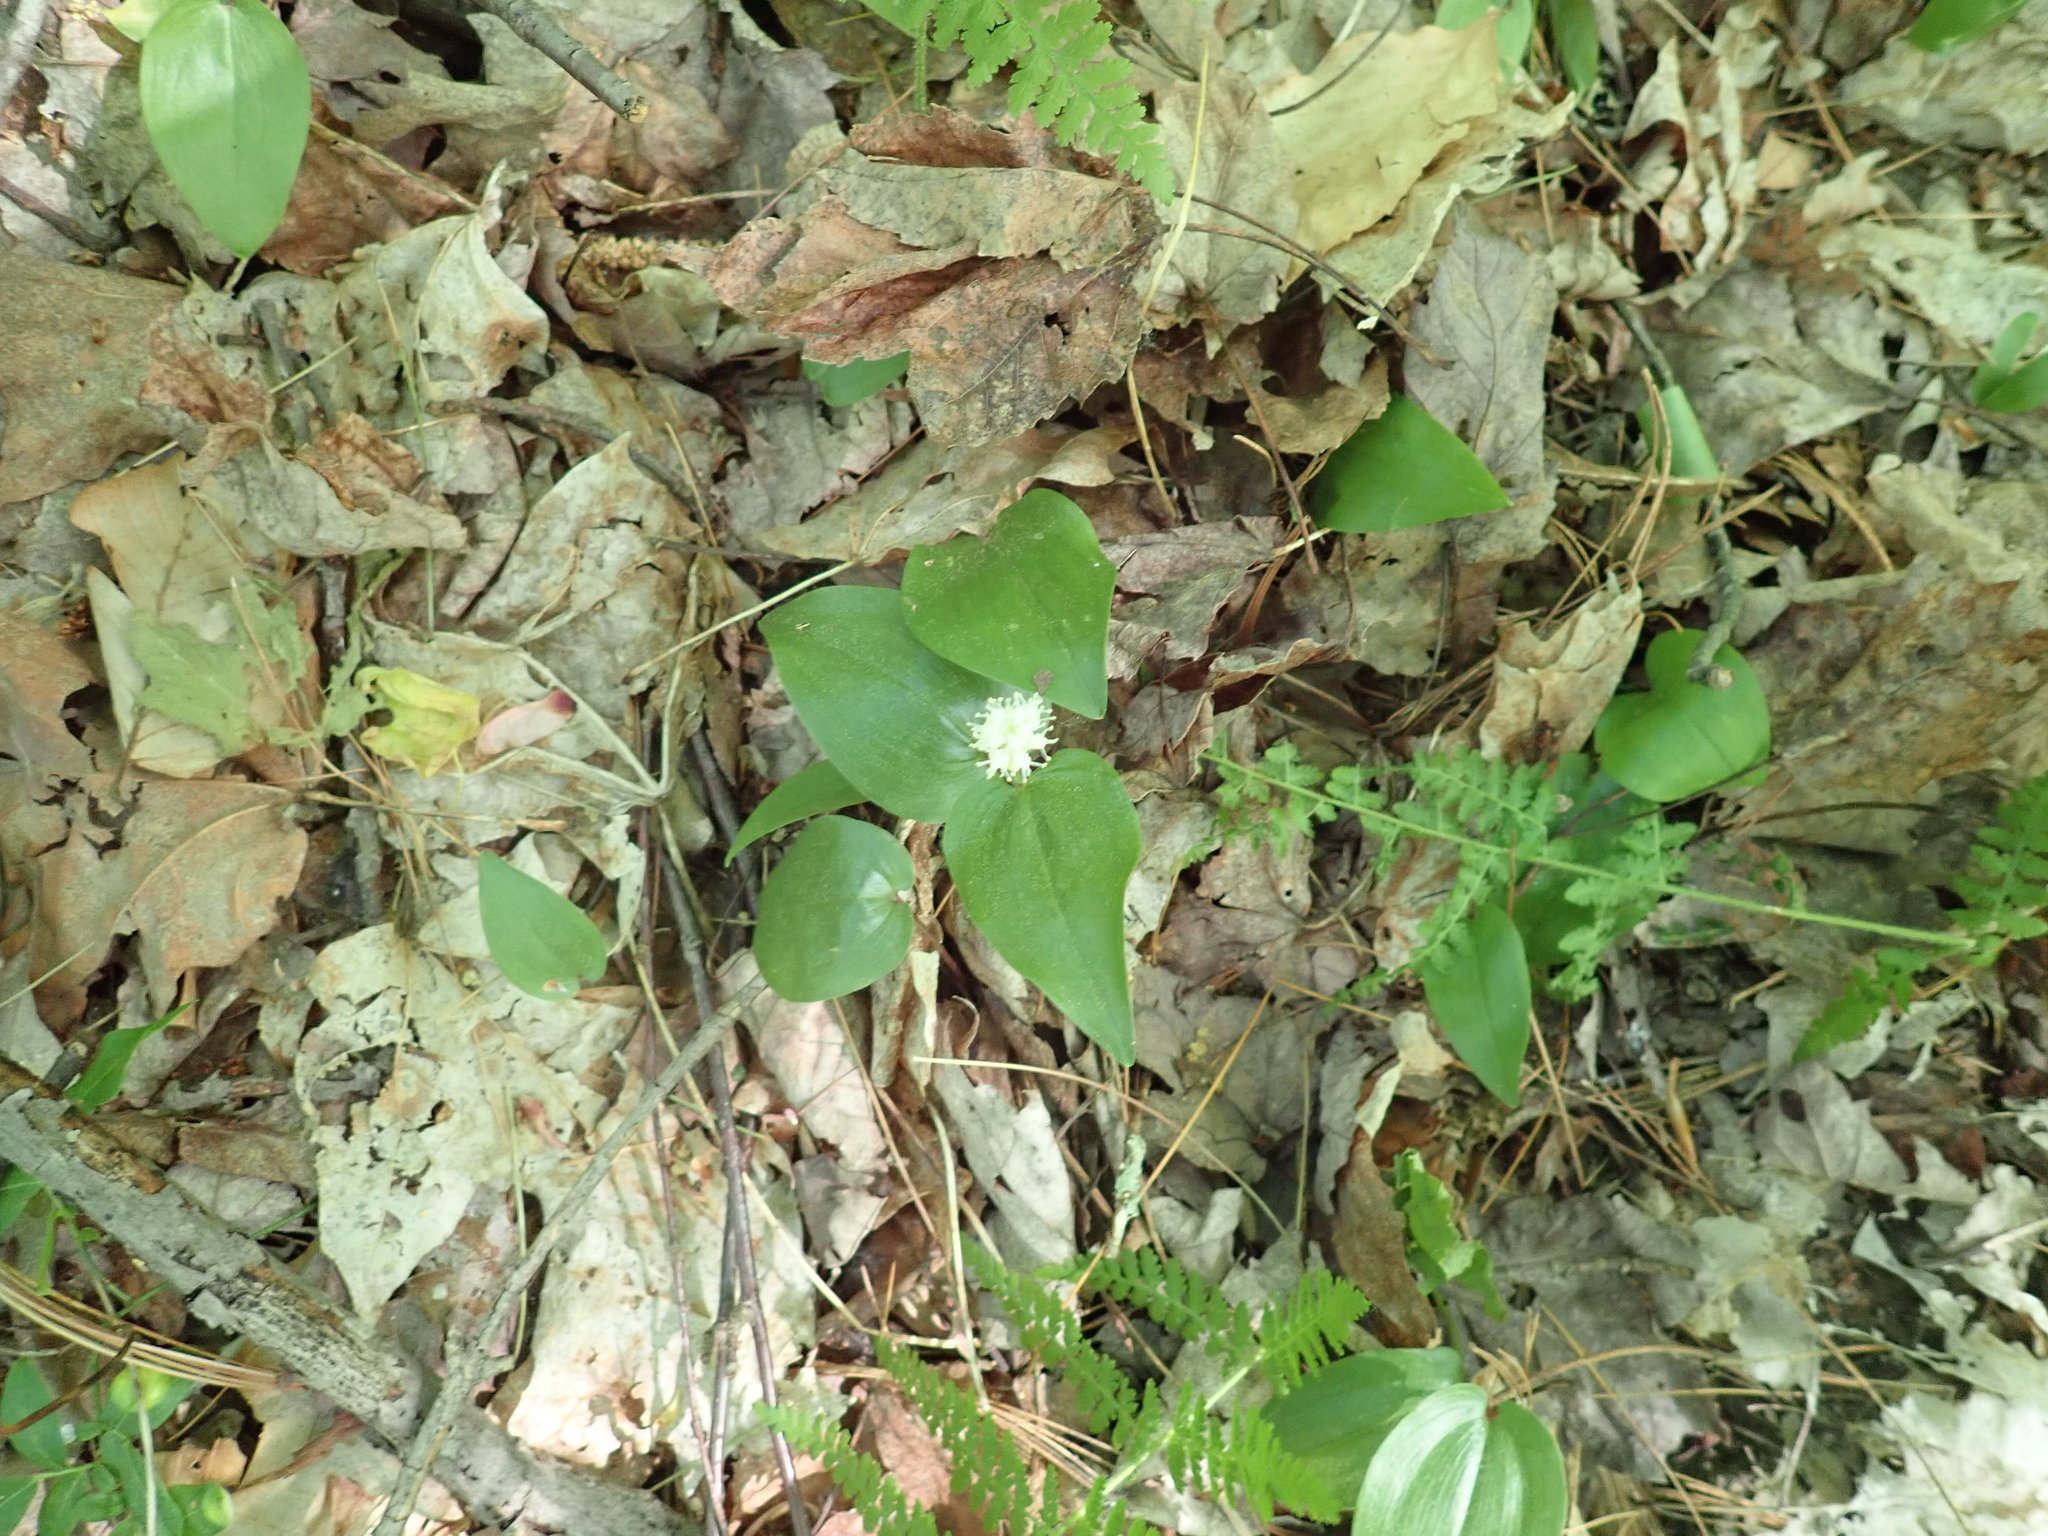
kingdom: Plantae
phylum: Tracheophyta
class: Liliopsida
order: Asparagales
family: Asparagaceae
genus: Maianthemum
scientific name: Maianthemum canadense
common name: False lily-of-the-valley
